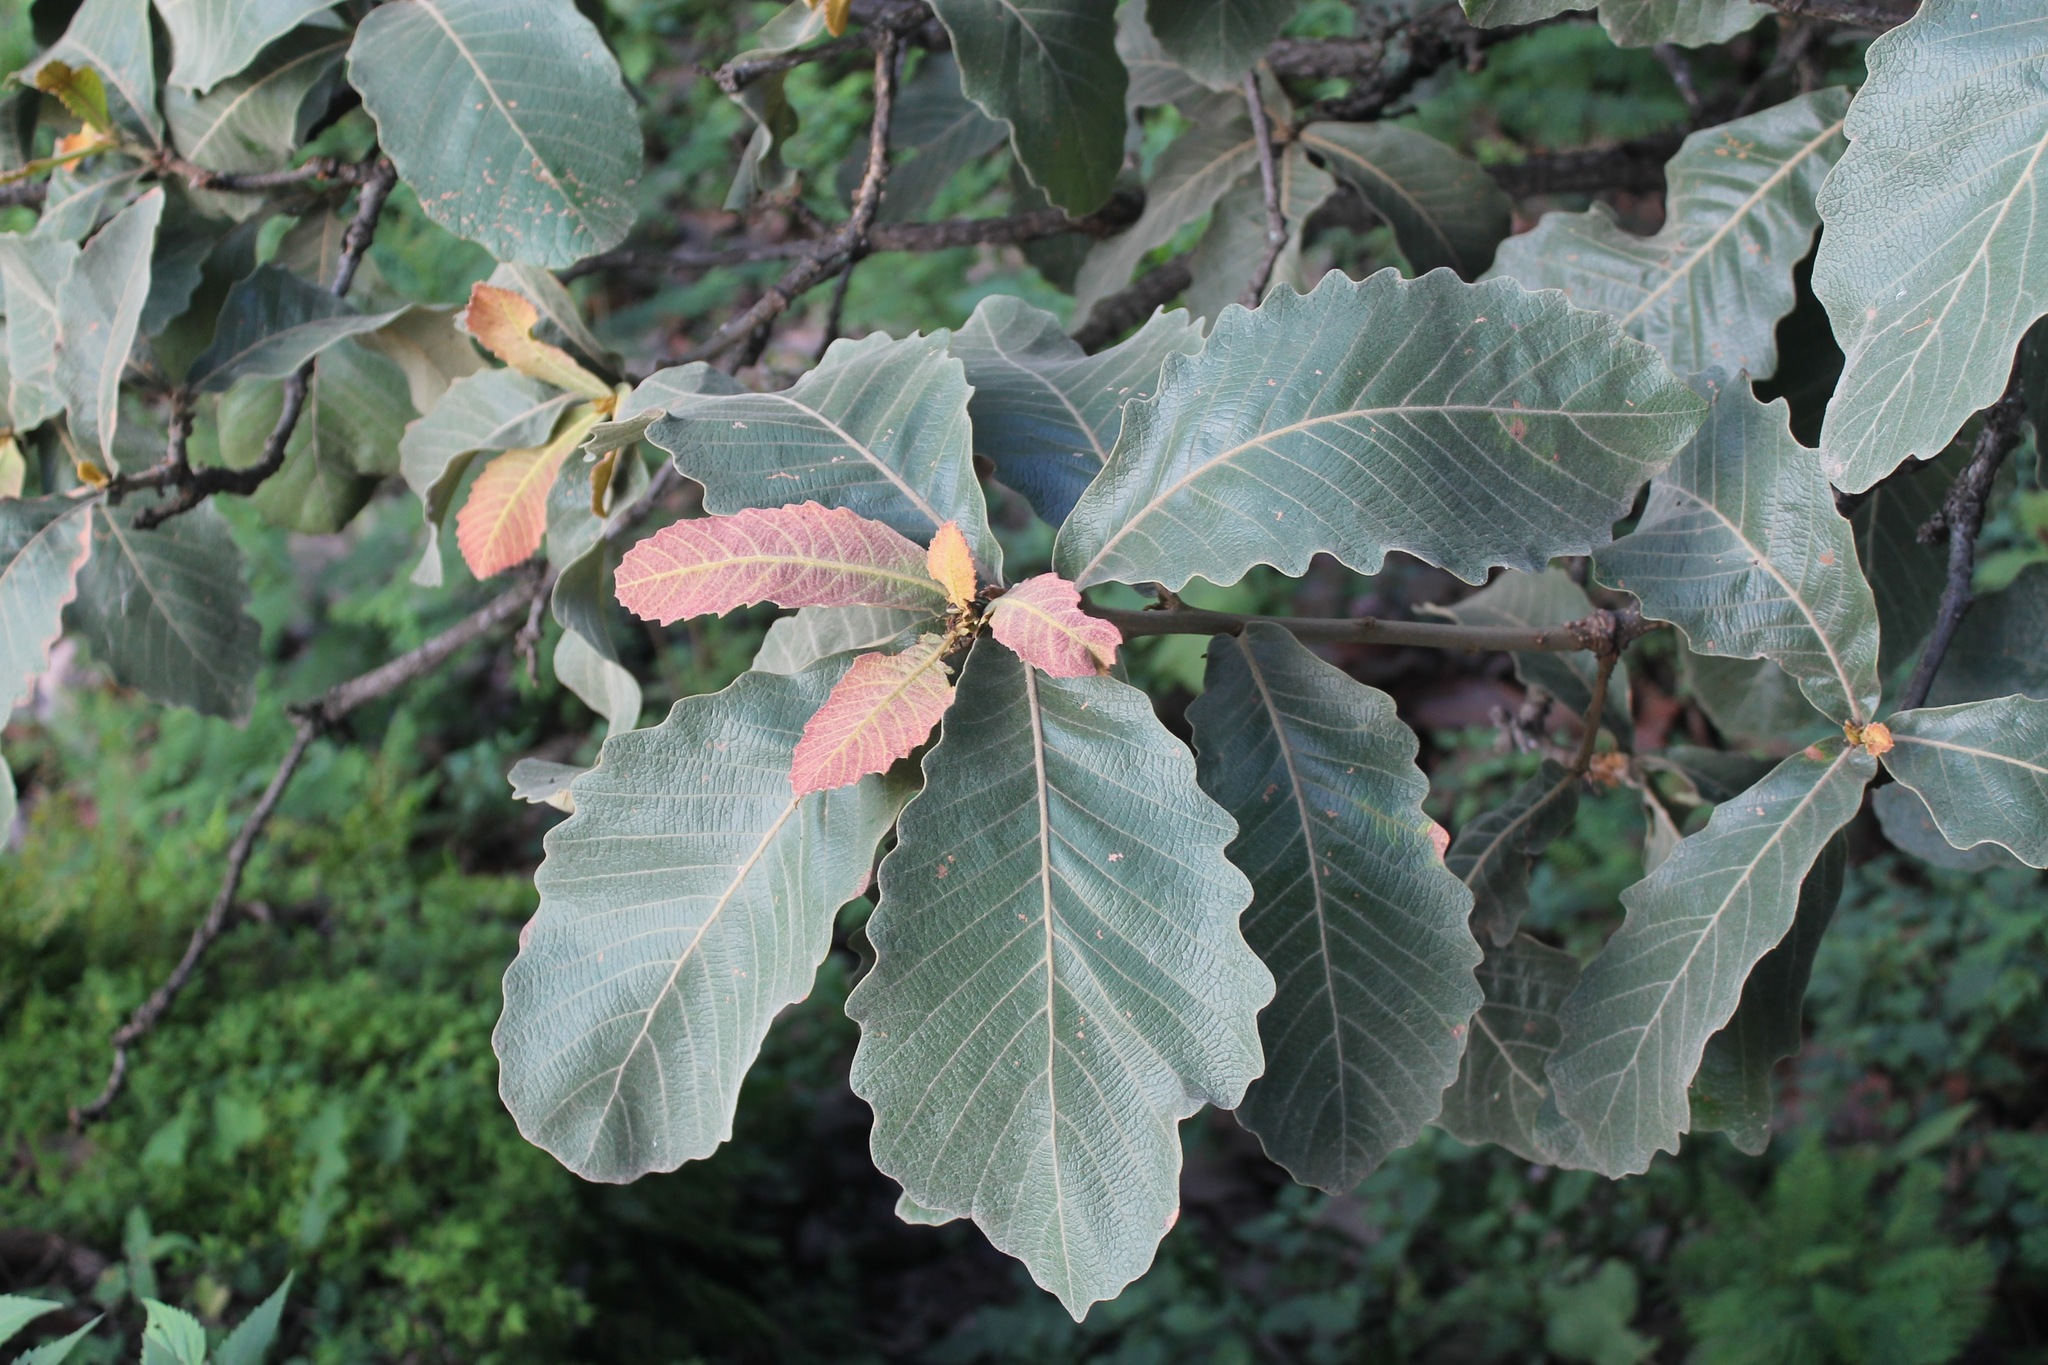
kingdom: Plantae
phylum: Tracheophyta
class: Magnoliopsida
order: Fagales
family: Fagaceae
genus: Quercus
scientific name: Quercus resinosa
